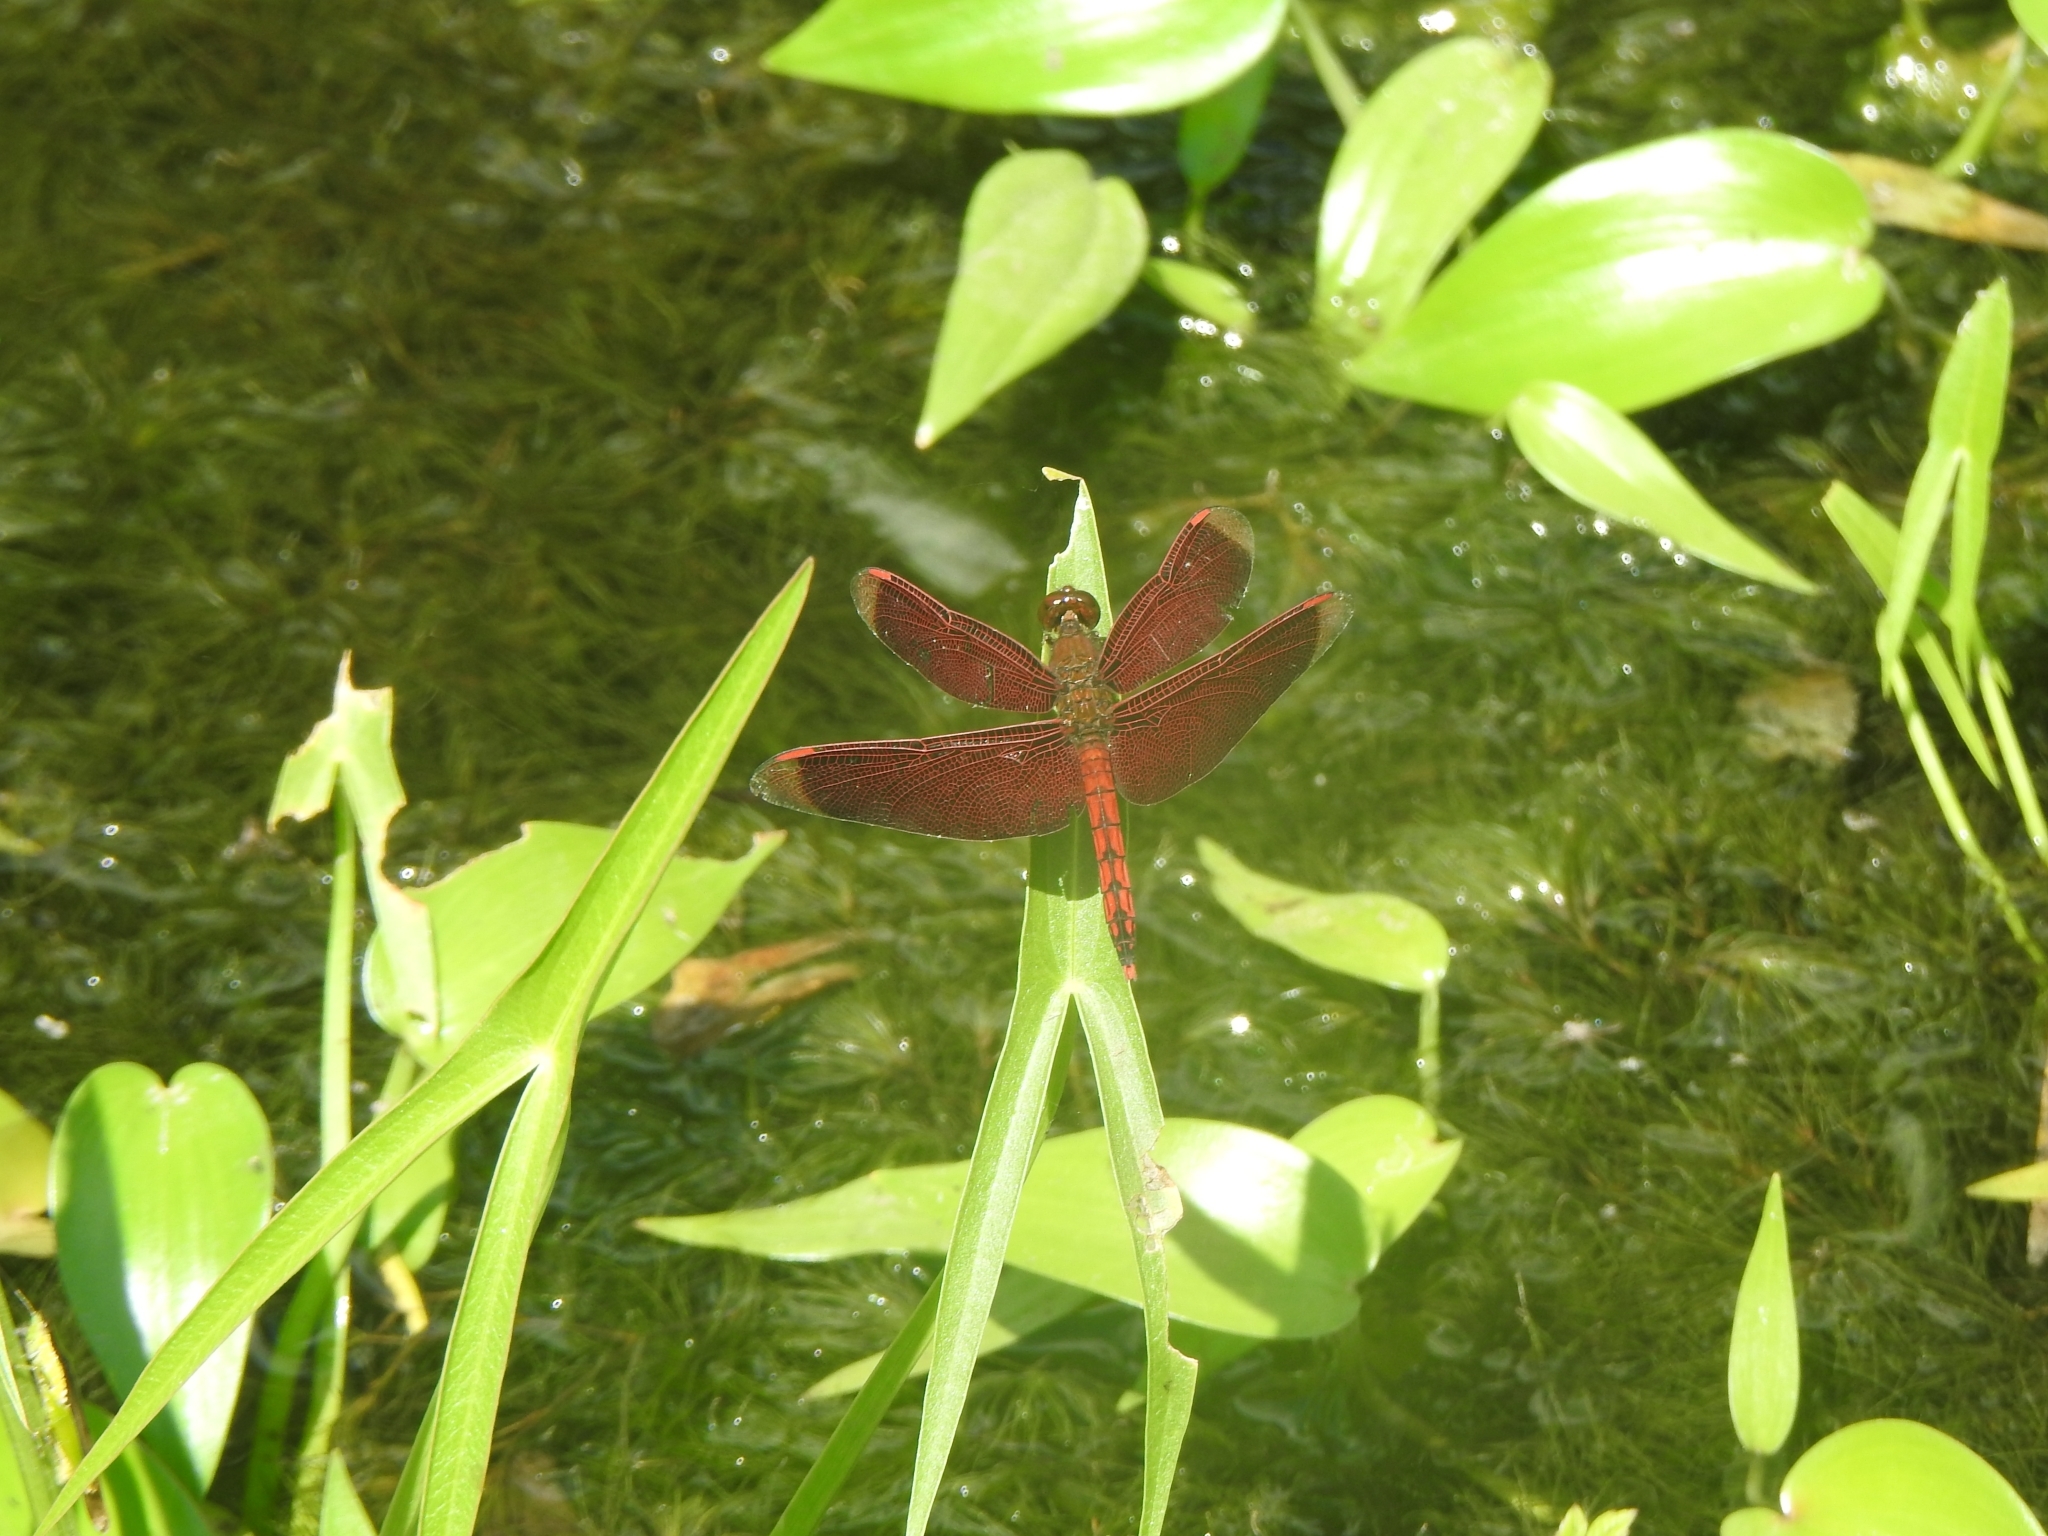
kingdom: Animalia
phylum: Arthropoda
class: Insecta
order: Odonata
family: Libellulidae
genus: Neurothemis
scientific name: Neurothemis taiwanensis
